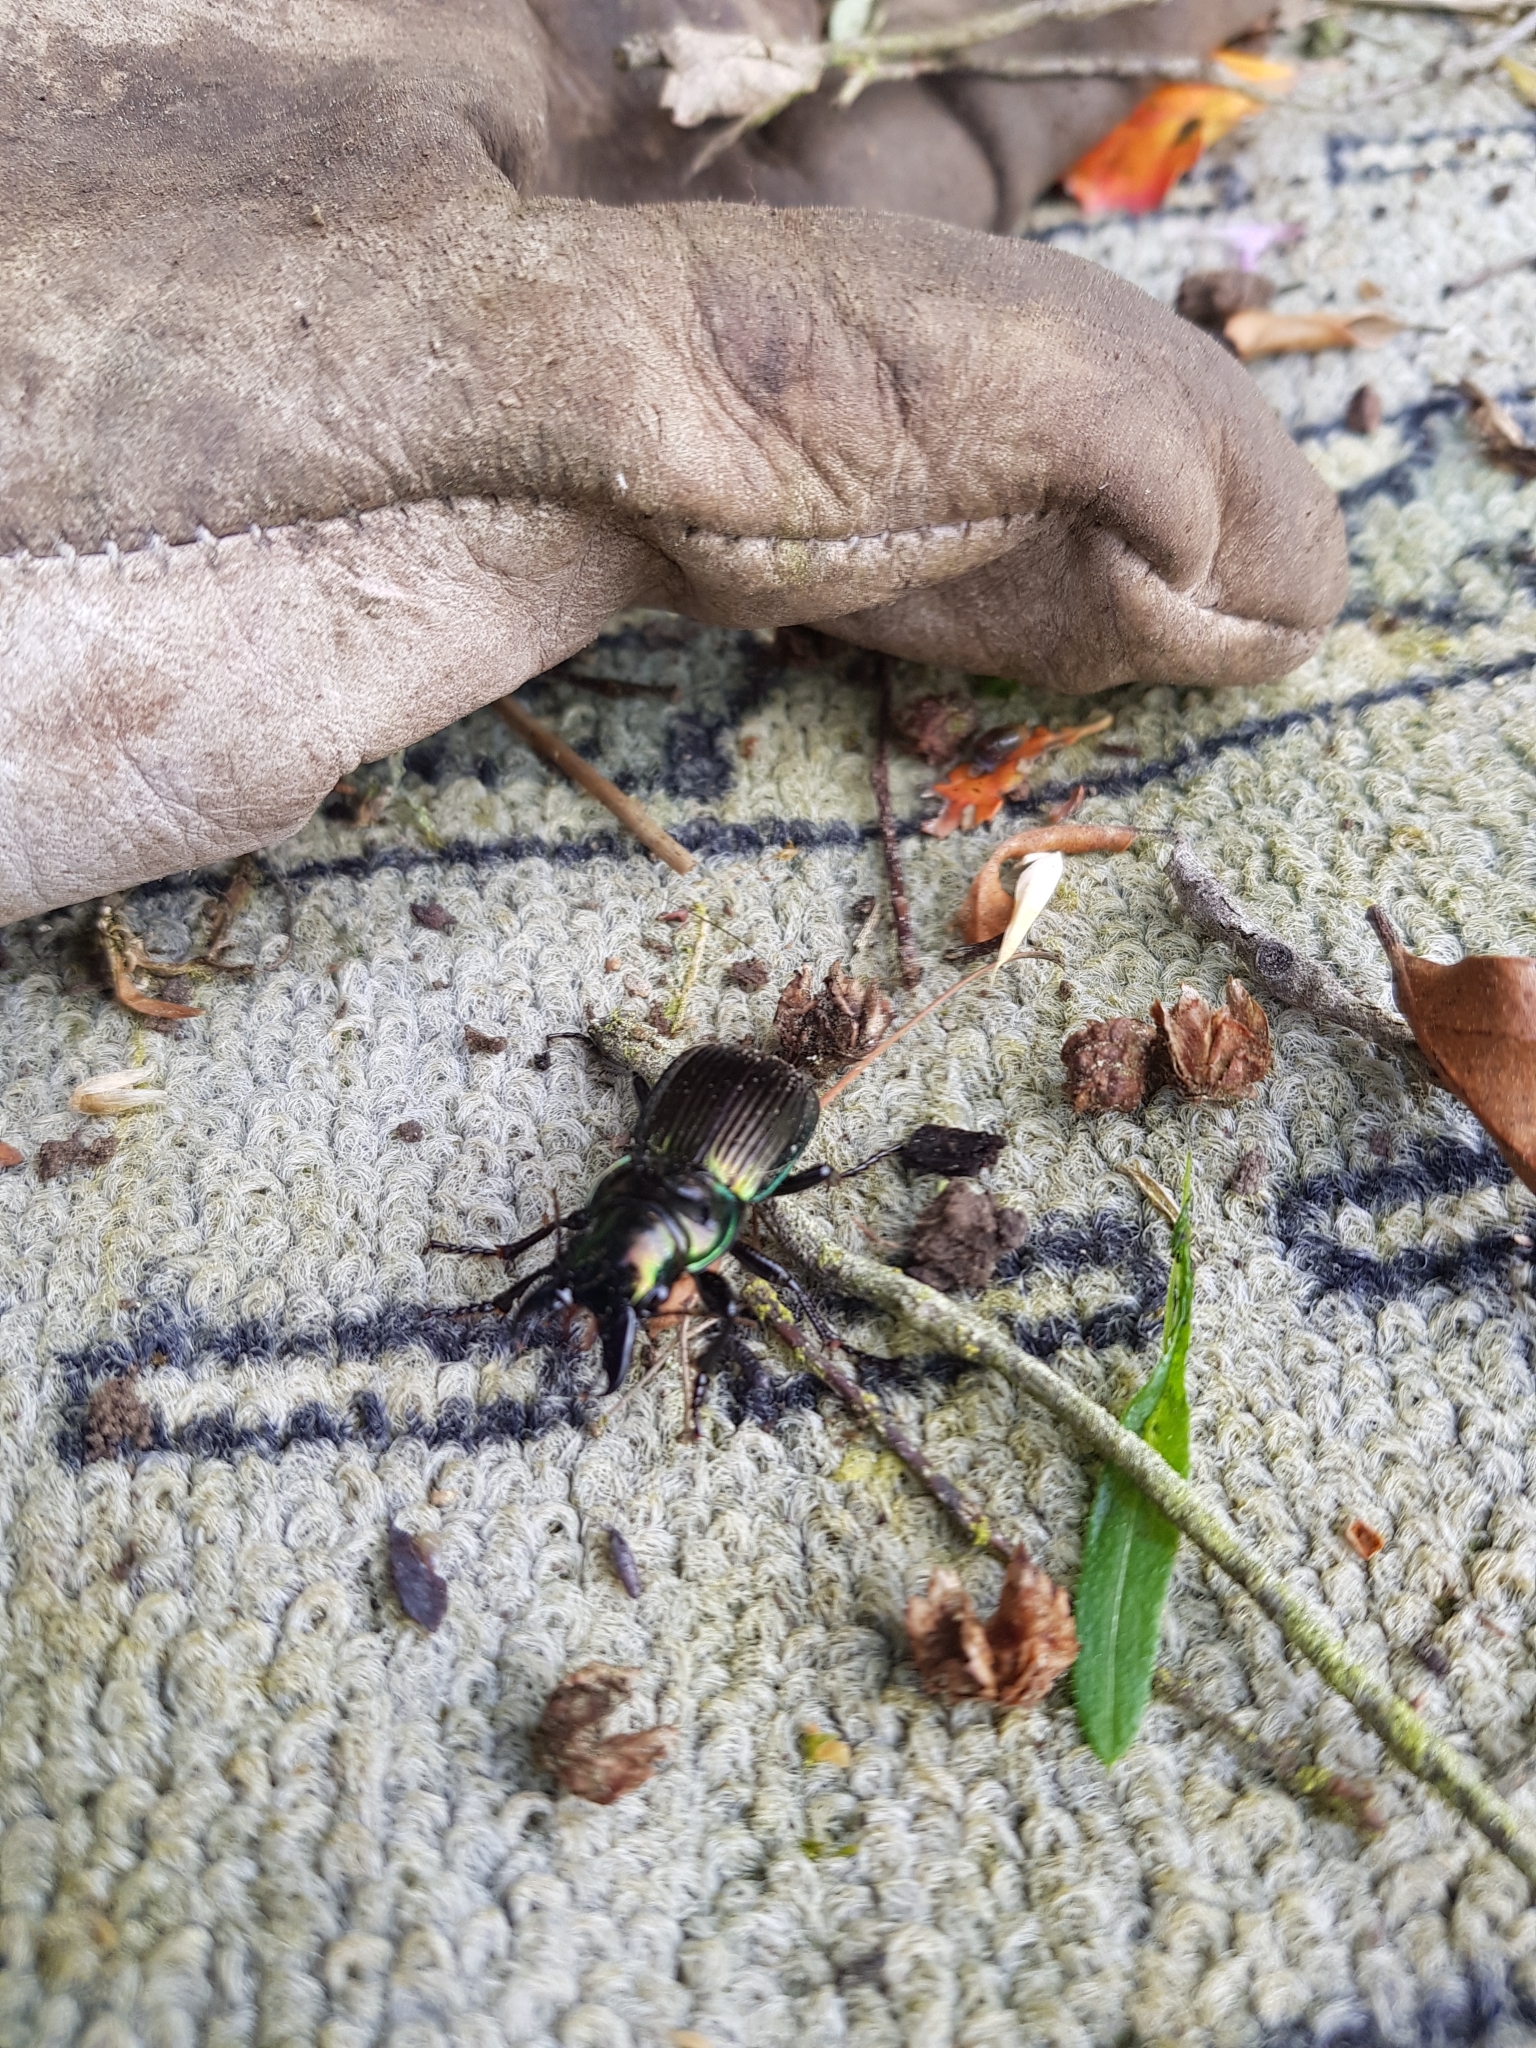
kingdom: Animalia
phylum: Arthropoda
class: Insecta
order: Coleoptera
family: Carabidae
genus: Megadromus
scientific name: Megadromus antarcticus
